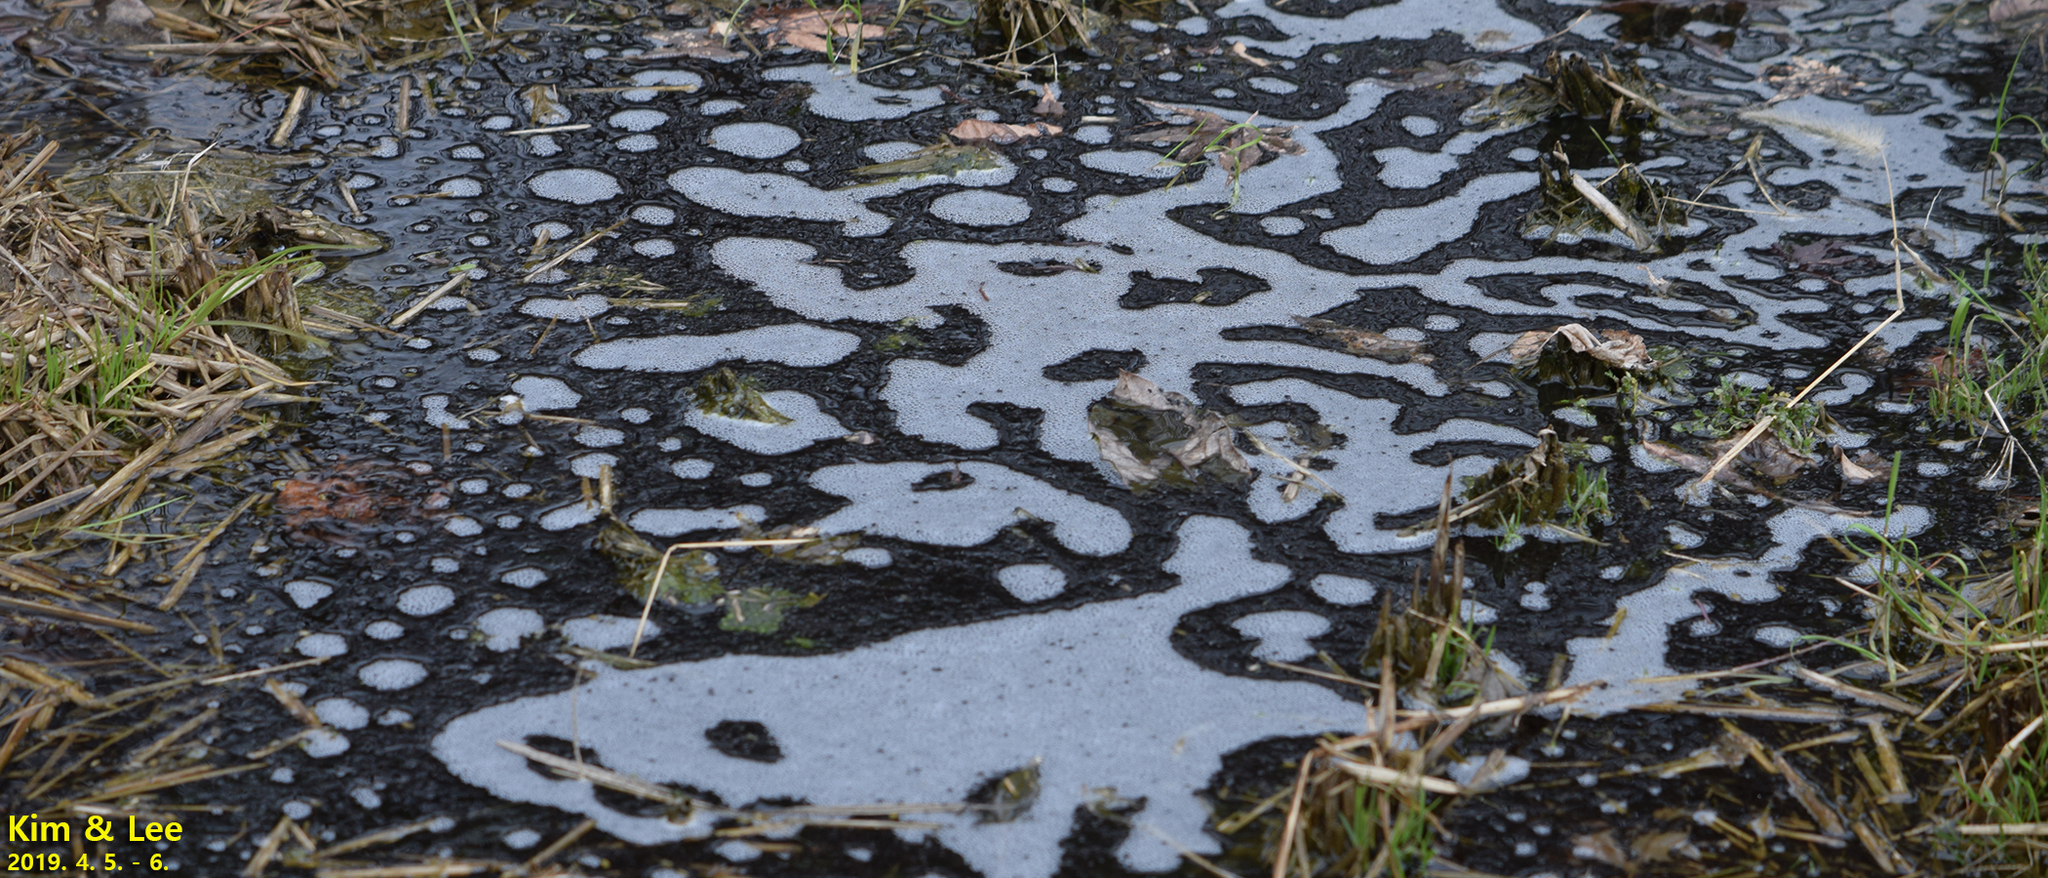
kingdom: Animalia
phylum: Chordata
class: Amphibia
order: Anura
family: Ranidae
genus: Rana
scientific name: Rana uenoi
